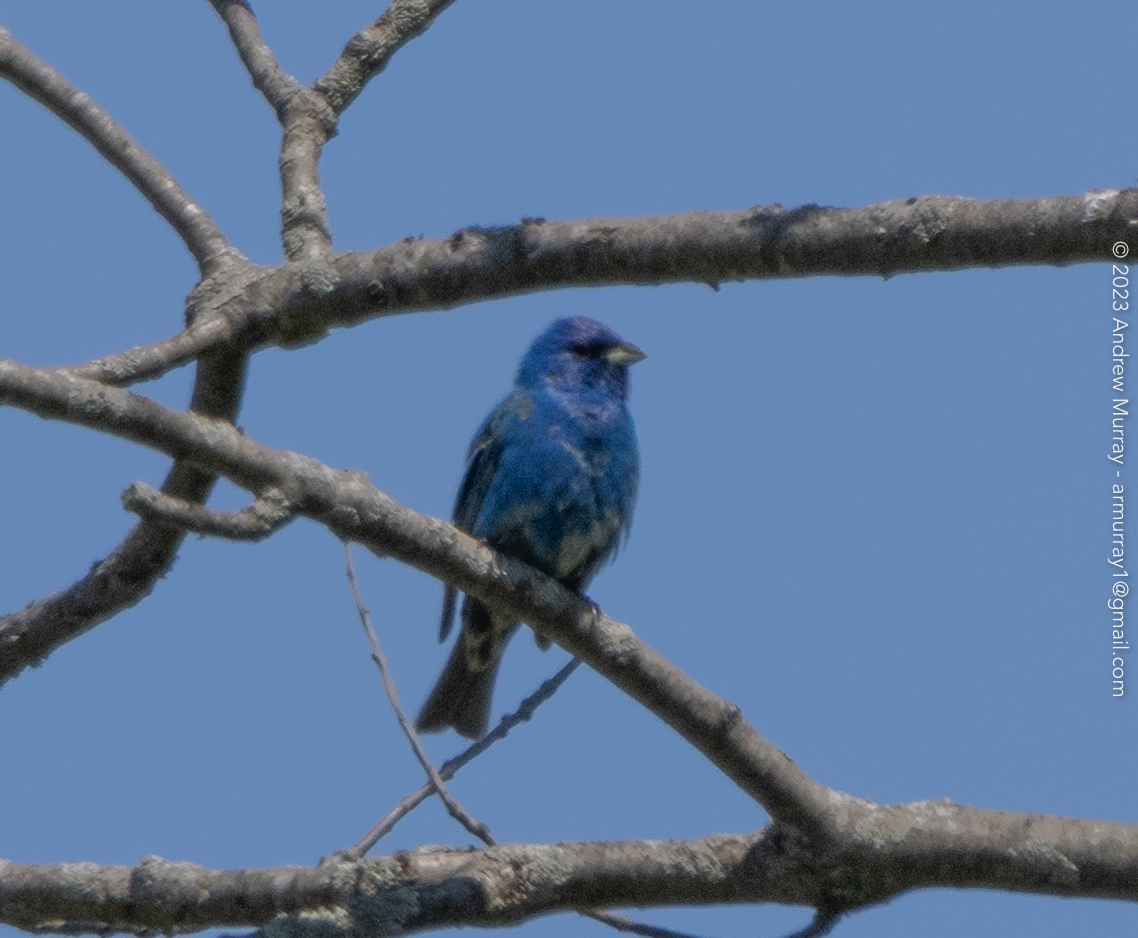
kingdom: Animalia
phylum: Chordata
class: Aves
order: Passeriformes
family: Cardinalidae
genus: Passerina
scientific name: Passerina cyanea
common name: Indigo bunting
